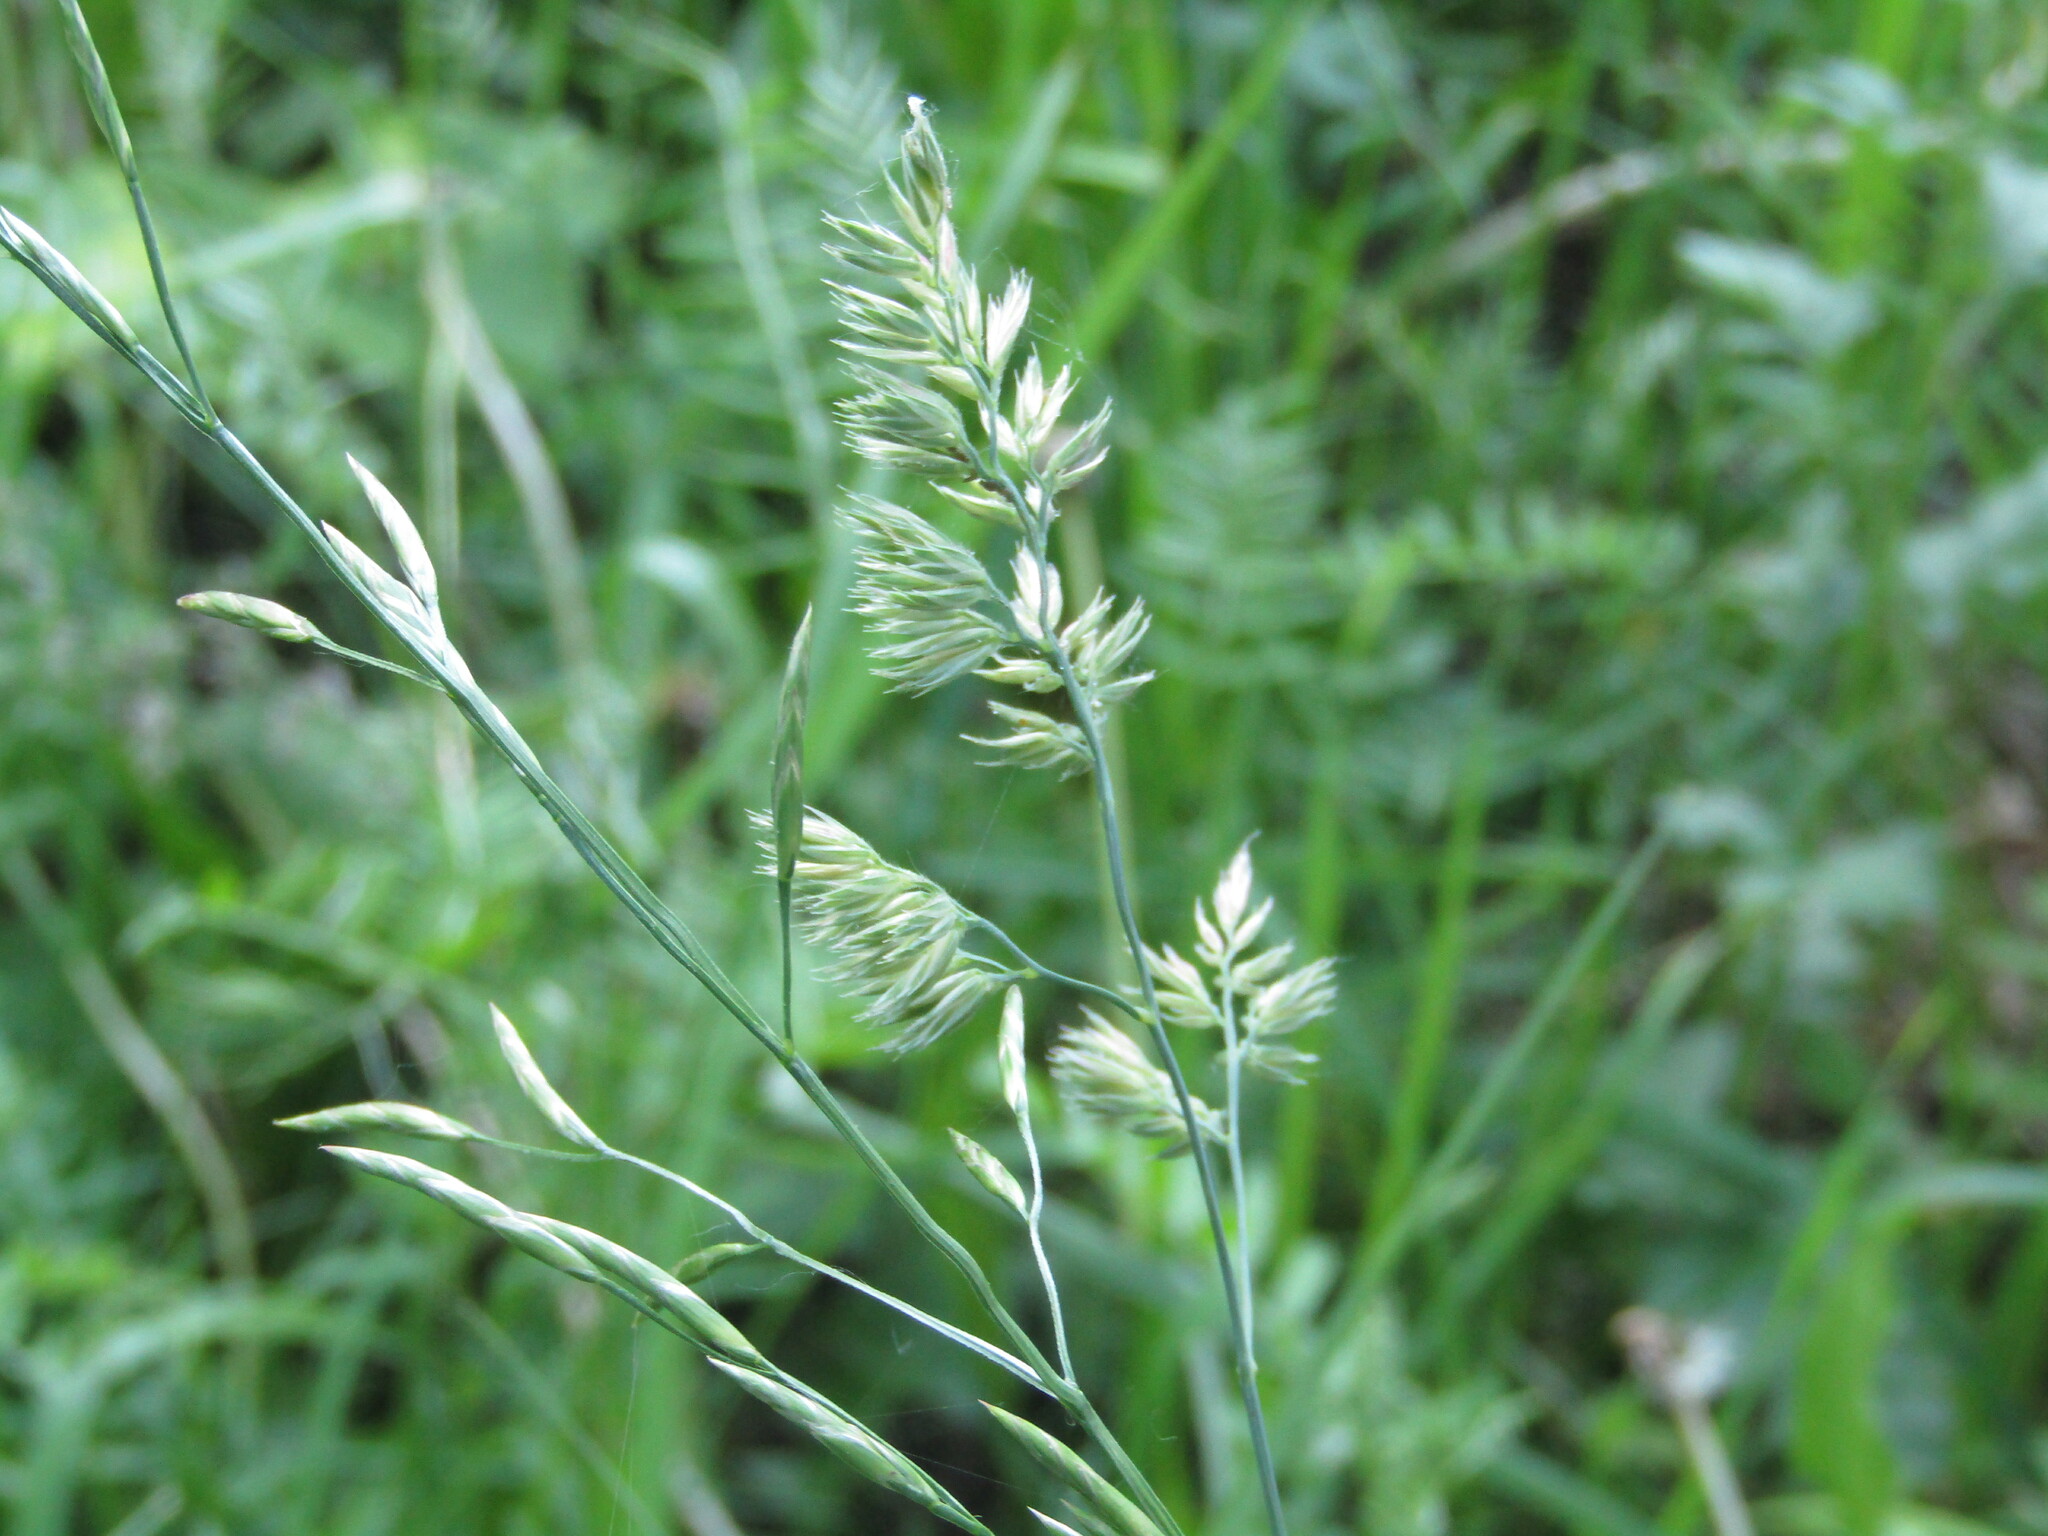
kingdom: Plantae
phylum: Tracheophyta
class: Liliopsida
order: Poales
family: Poaceae
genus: Dactylis
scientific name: Dactylis glomerata
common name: Orchardgrass
